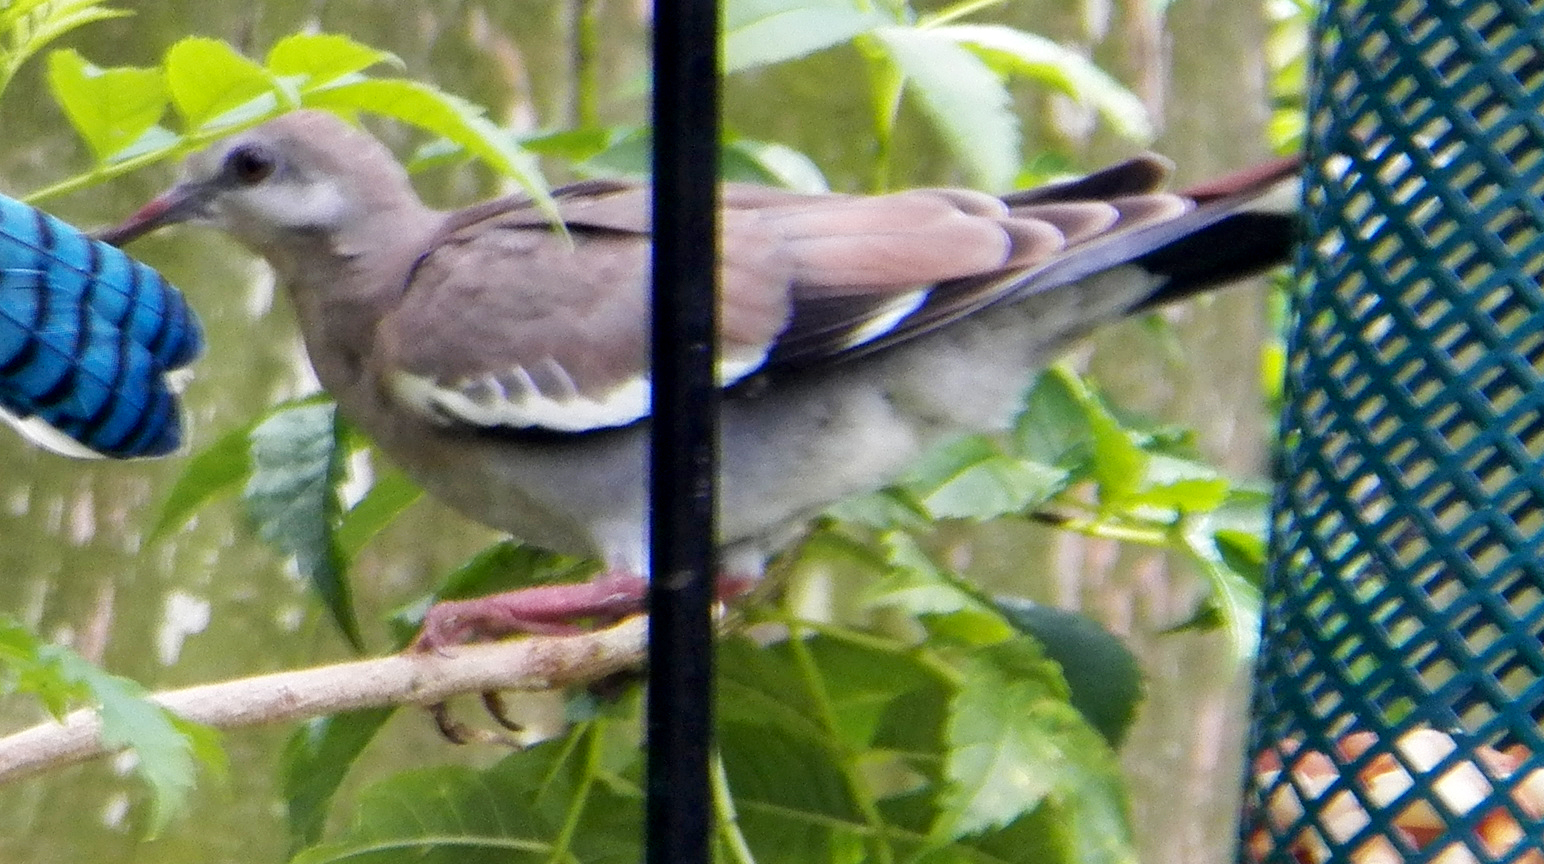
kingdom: Animalia
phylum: Chordata
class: Aves
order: Columbiformes
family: Columbidae
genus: Zenaida
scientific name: Zenaida asiatica
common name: White-winged dove
